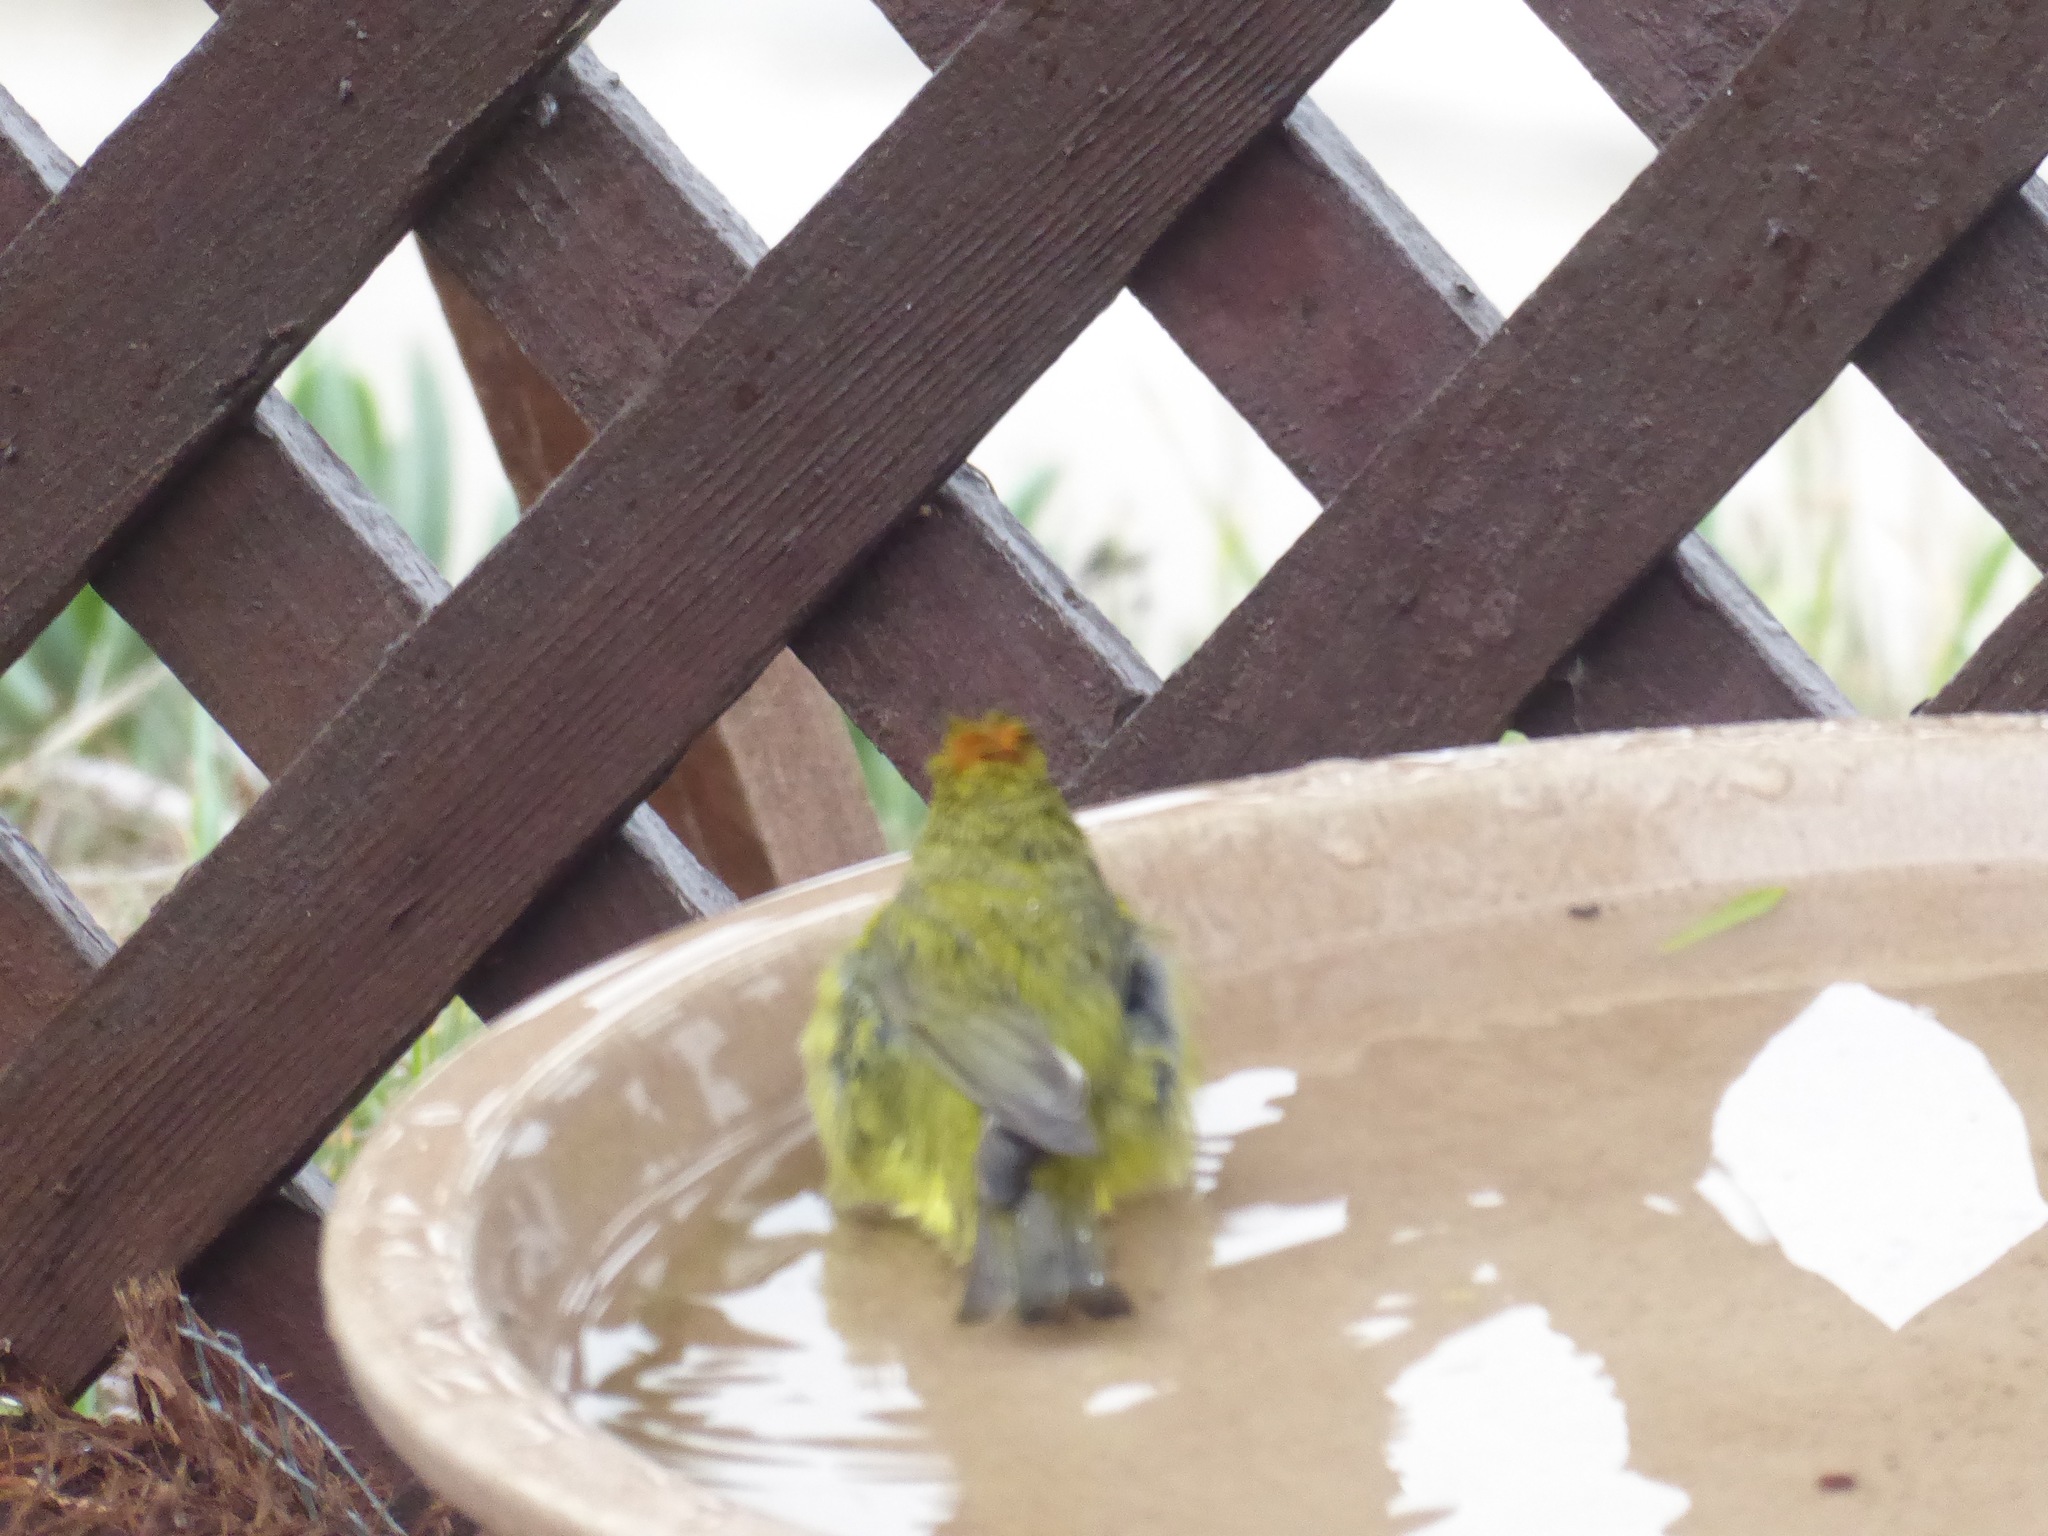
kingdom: Animalia
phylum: Chordata
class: Aves
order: Passeriformes
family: Parulidae
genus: Leiothlypis
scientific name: Leiothlypis celata
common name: Orange-crowned warbler
